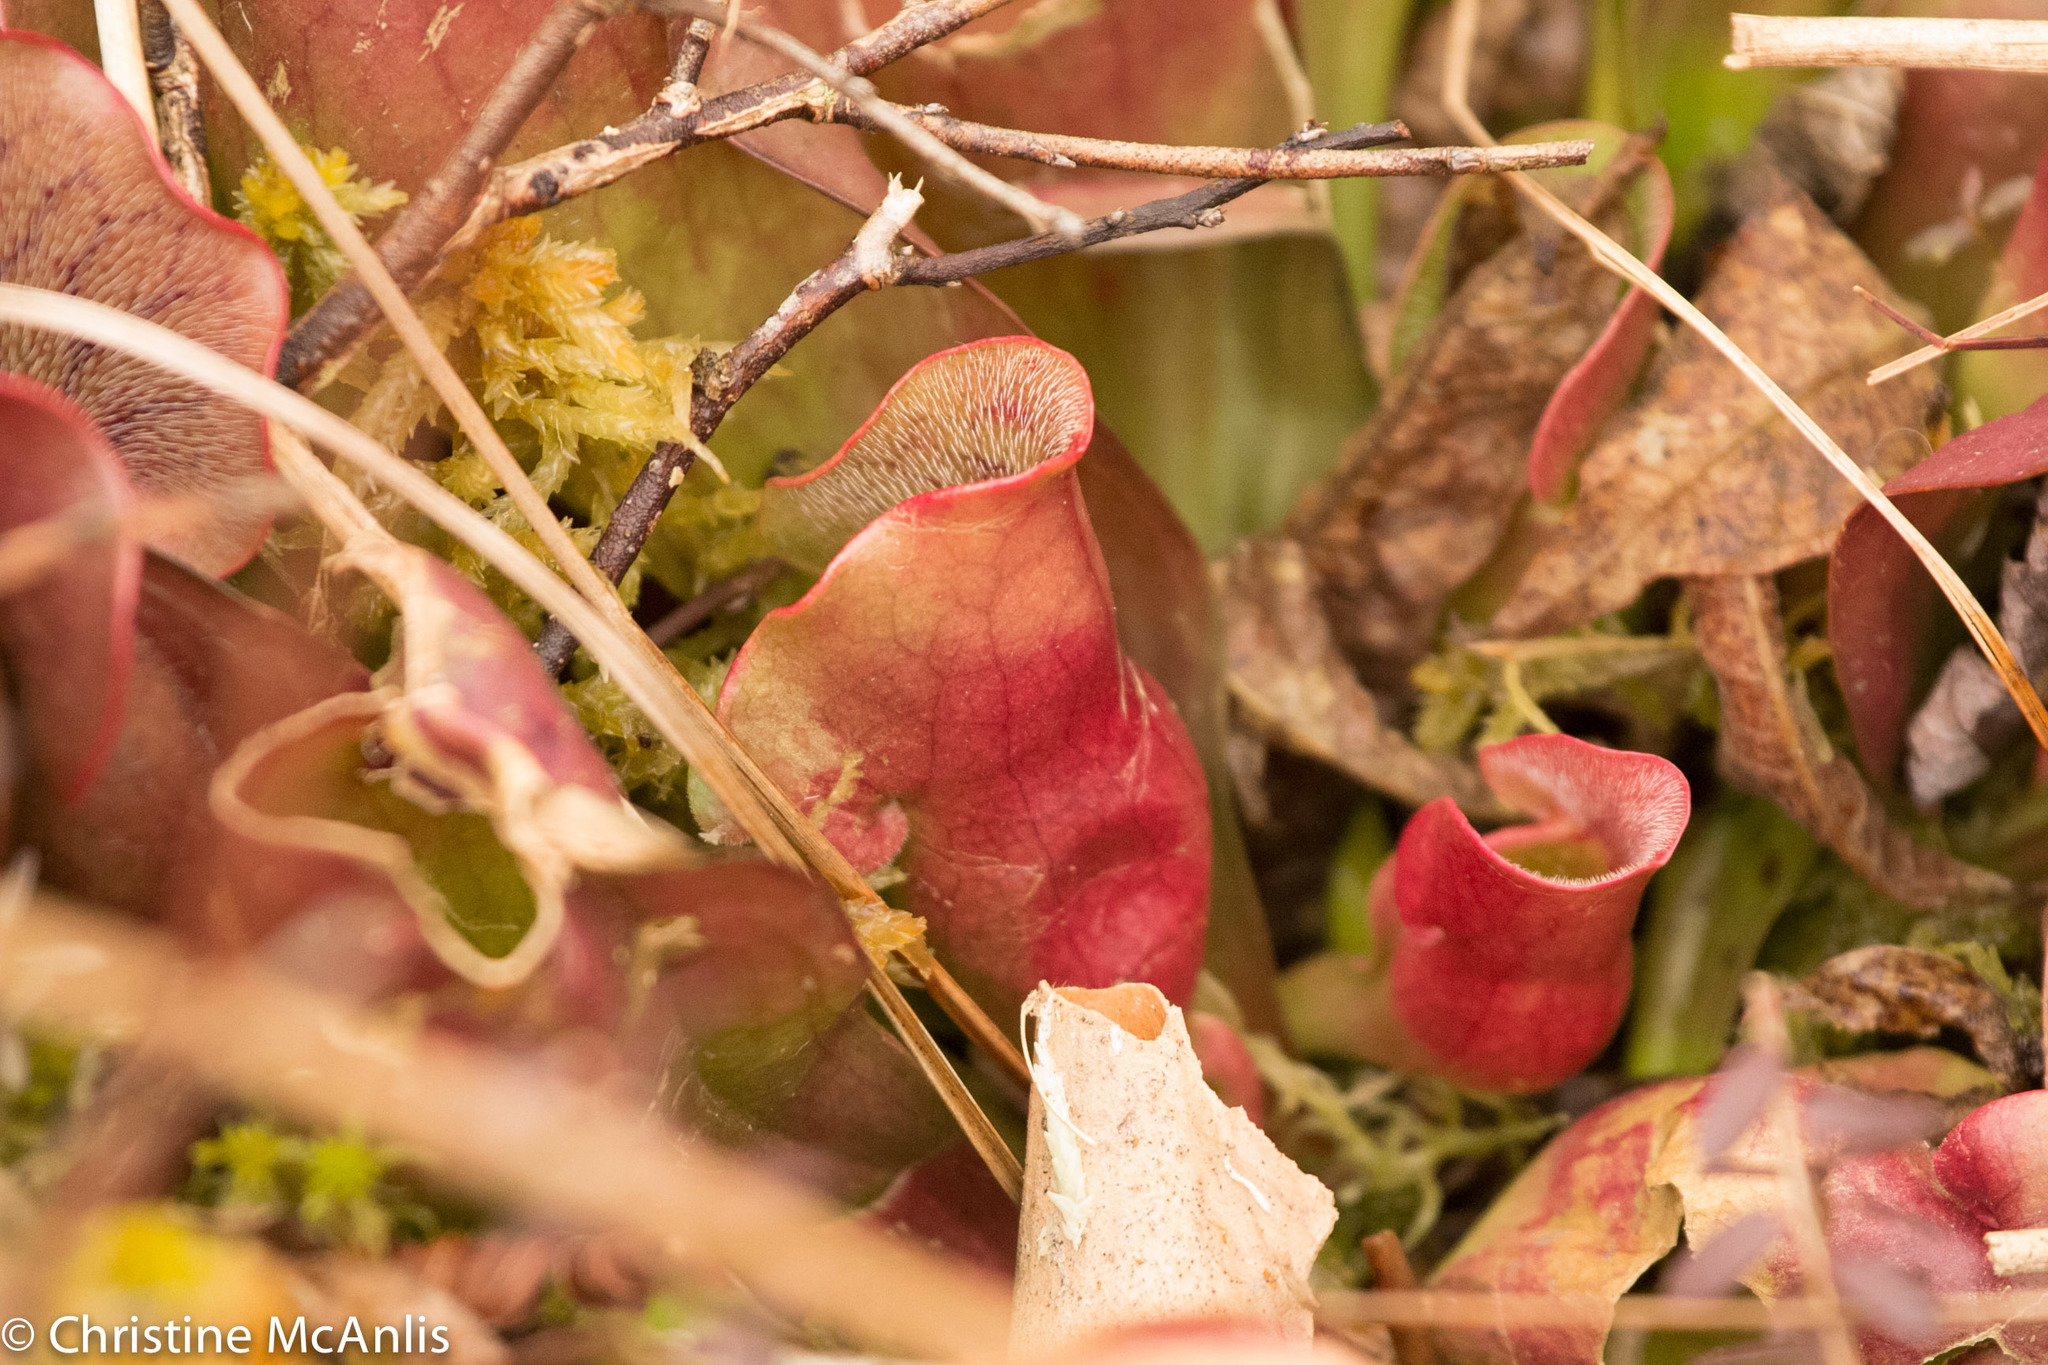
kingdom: Plantae
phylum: Tracheophyta
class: Magnoliopsida
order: Ericales
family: Sarraceniaceae
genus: Sarracenia
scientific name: Sarracenia purpurea
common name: Pitcherplant
